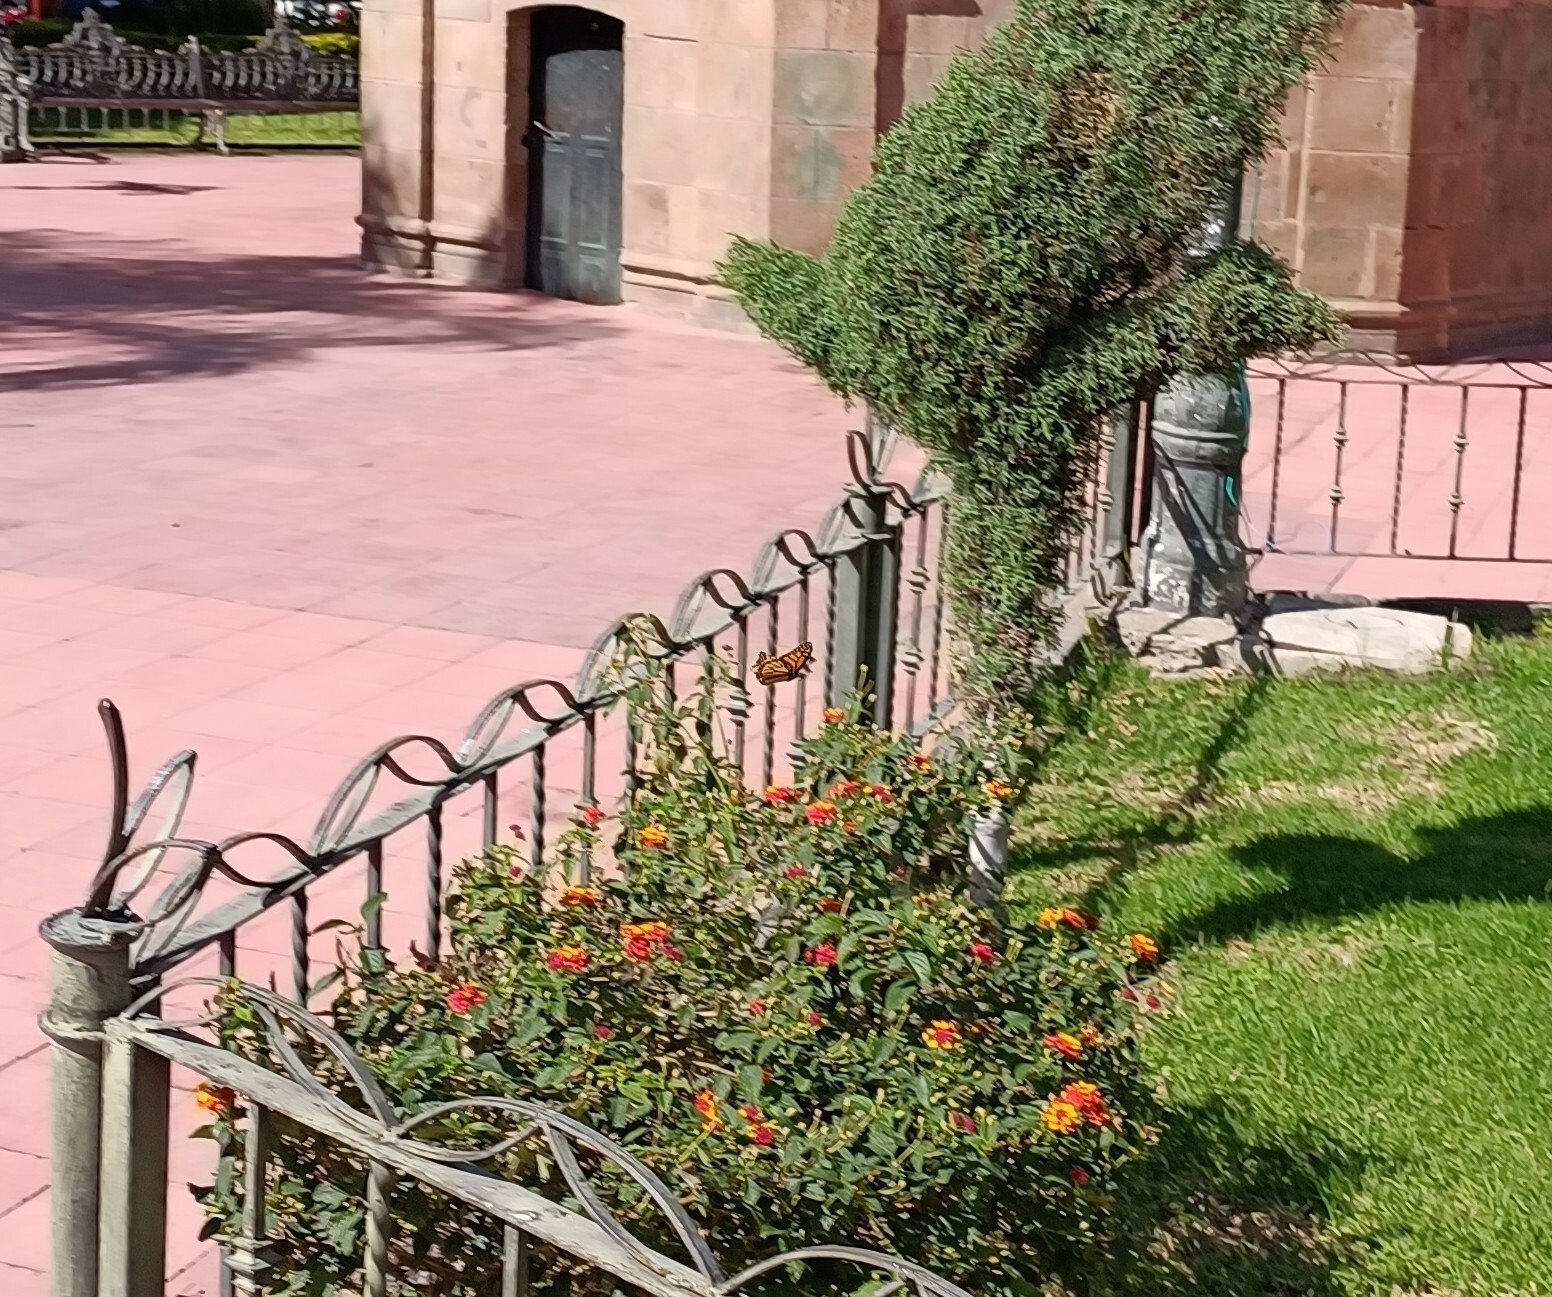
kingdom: Animalia
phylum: Arthropoda
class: Insecta
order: Lepidoptera
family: Nymphalidae
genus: Danaus
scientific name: Danaus plexippus
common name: Monarch
